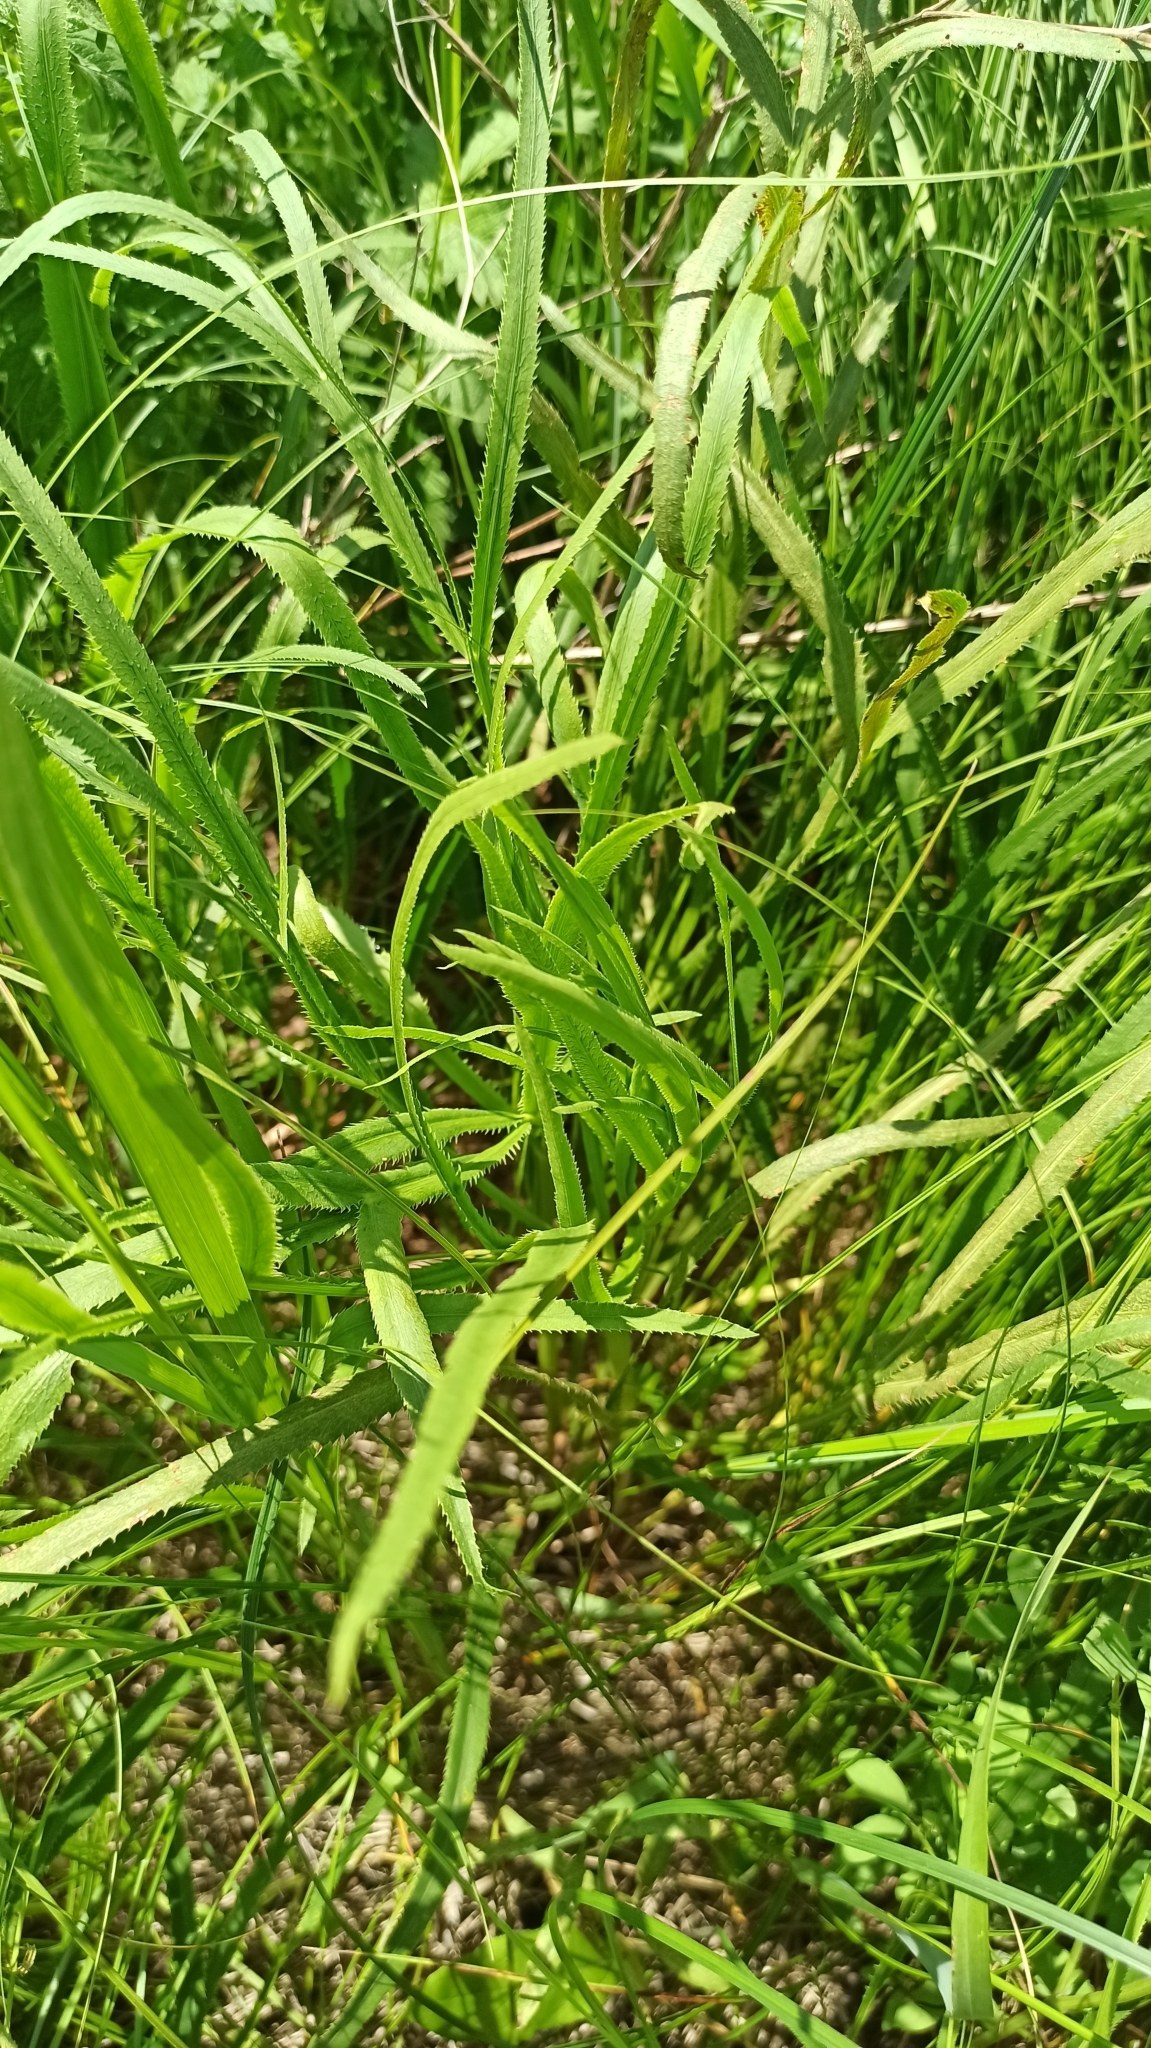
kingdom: Plantae
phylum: Tracheophyta
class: Magnoliopsida
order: Apiales
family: Apiaceae
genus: Falcaria
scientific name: Falcaria vulgaris
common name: Longleaf
